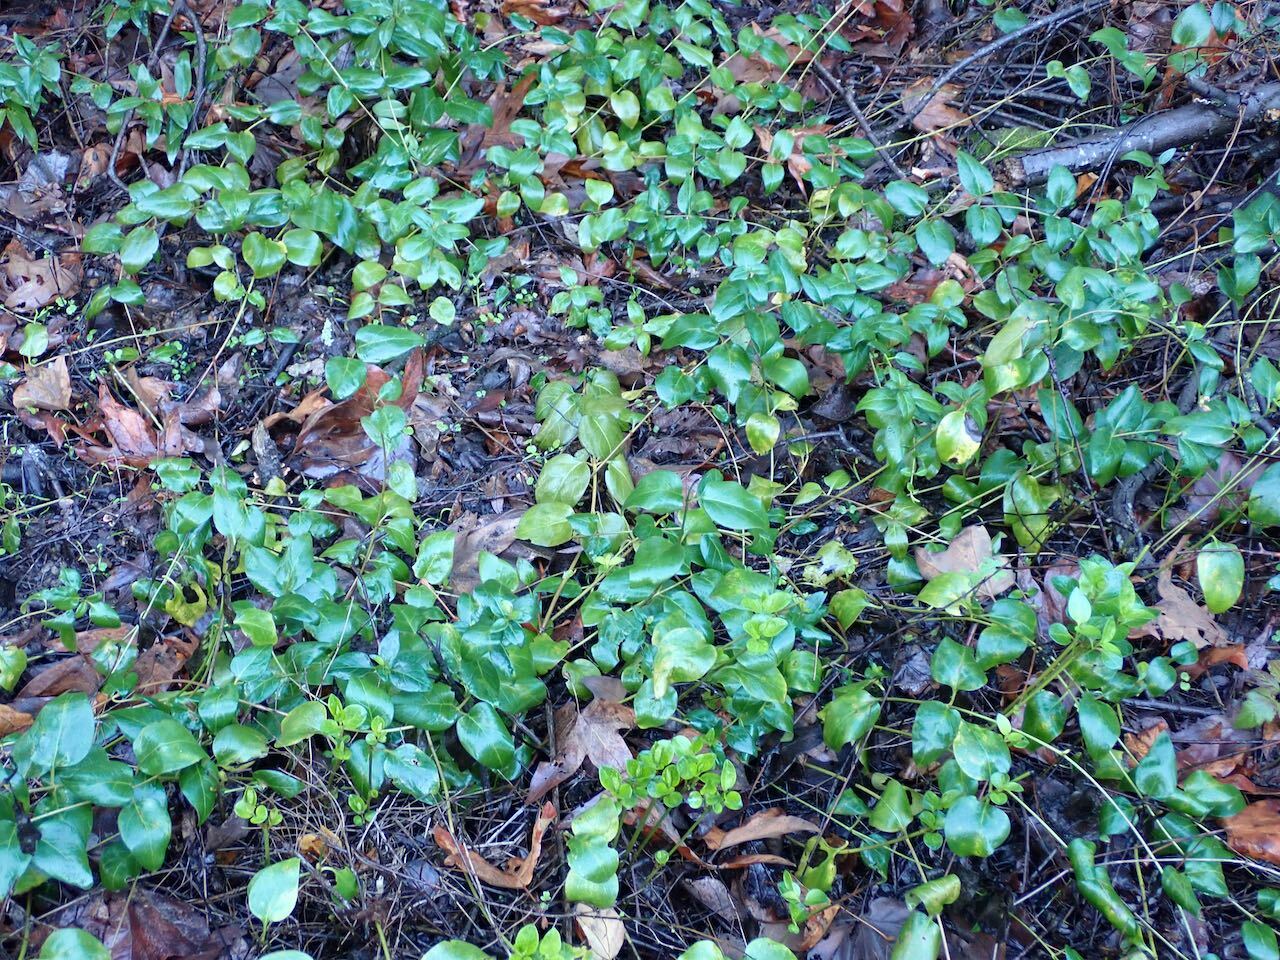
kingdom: Plantae
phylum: Tracheophyta
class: Magnoliopsida
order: Gentianales
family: Apocynaceae
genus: Vinca
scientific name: Vinca major
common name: Greater periwinkle
